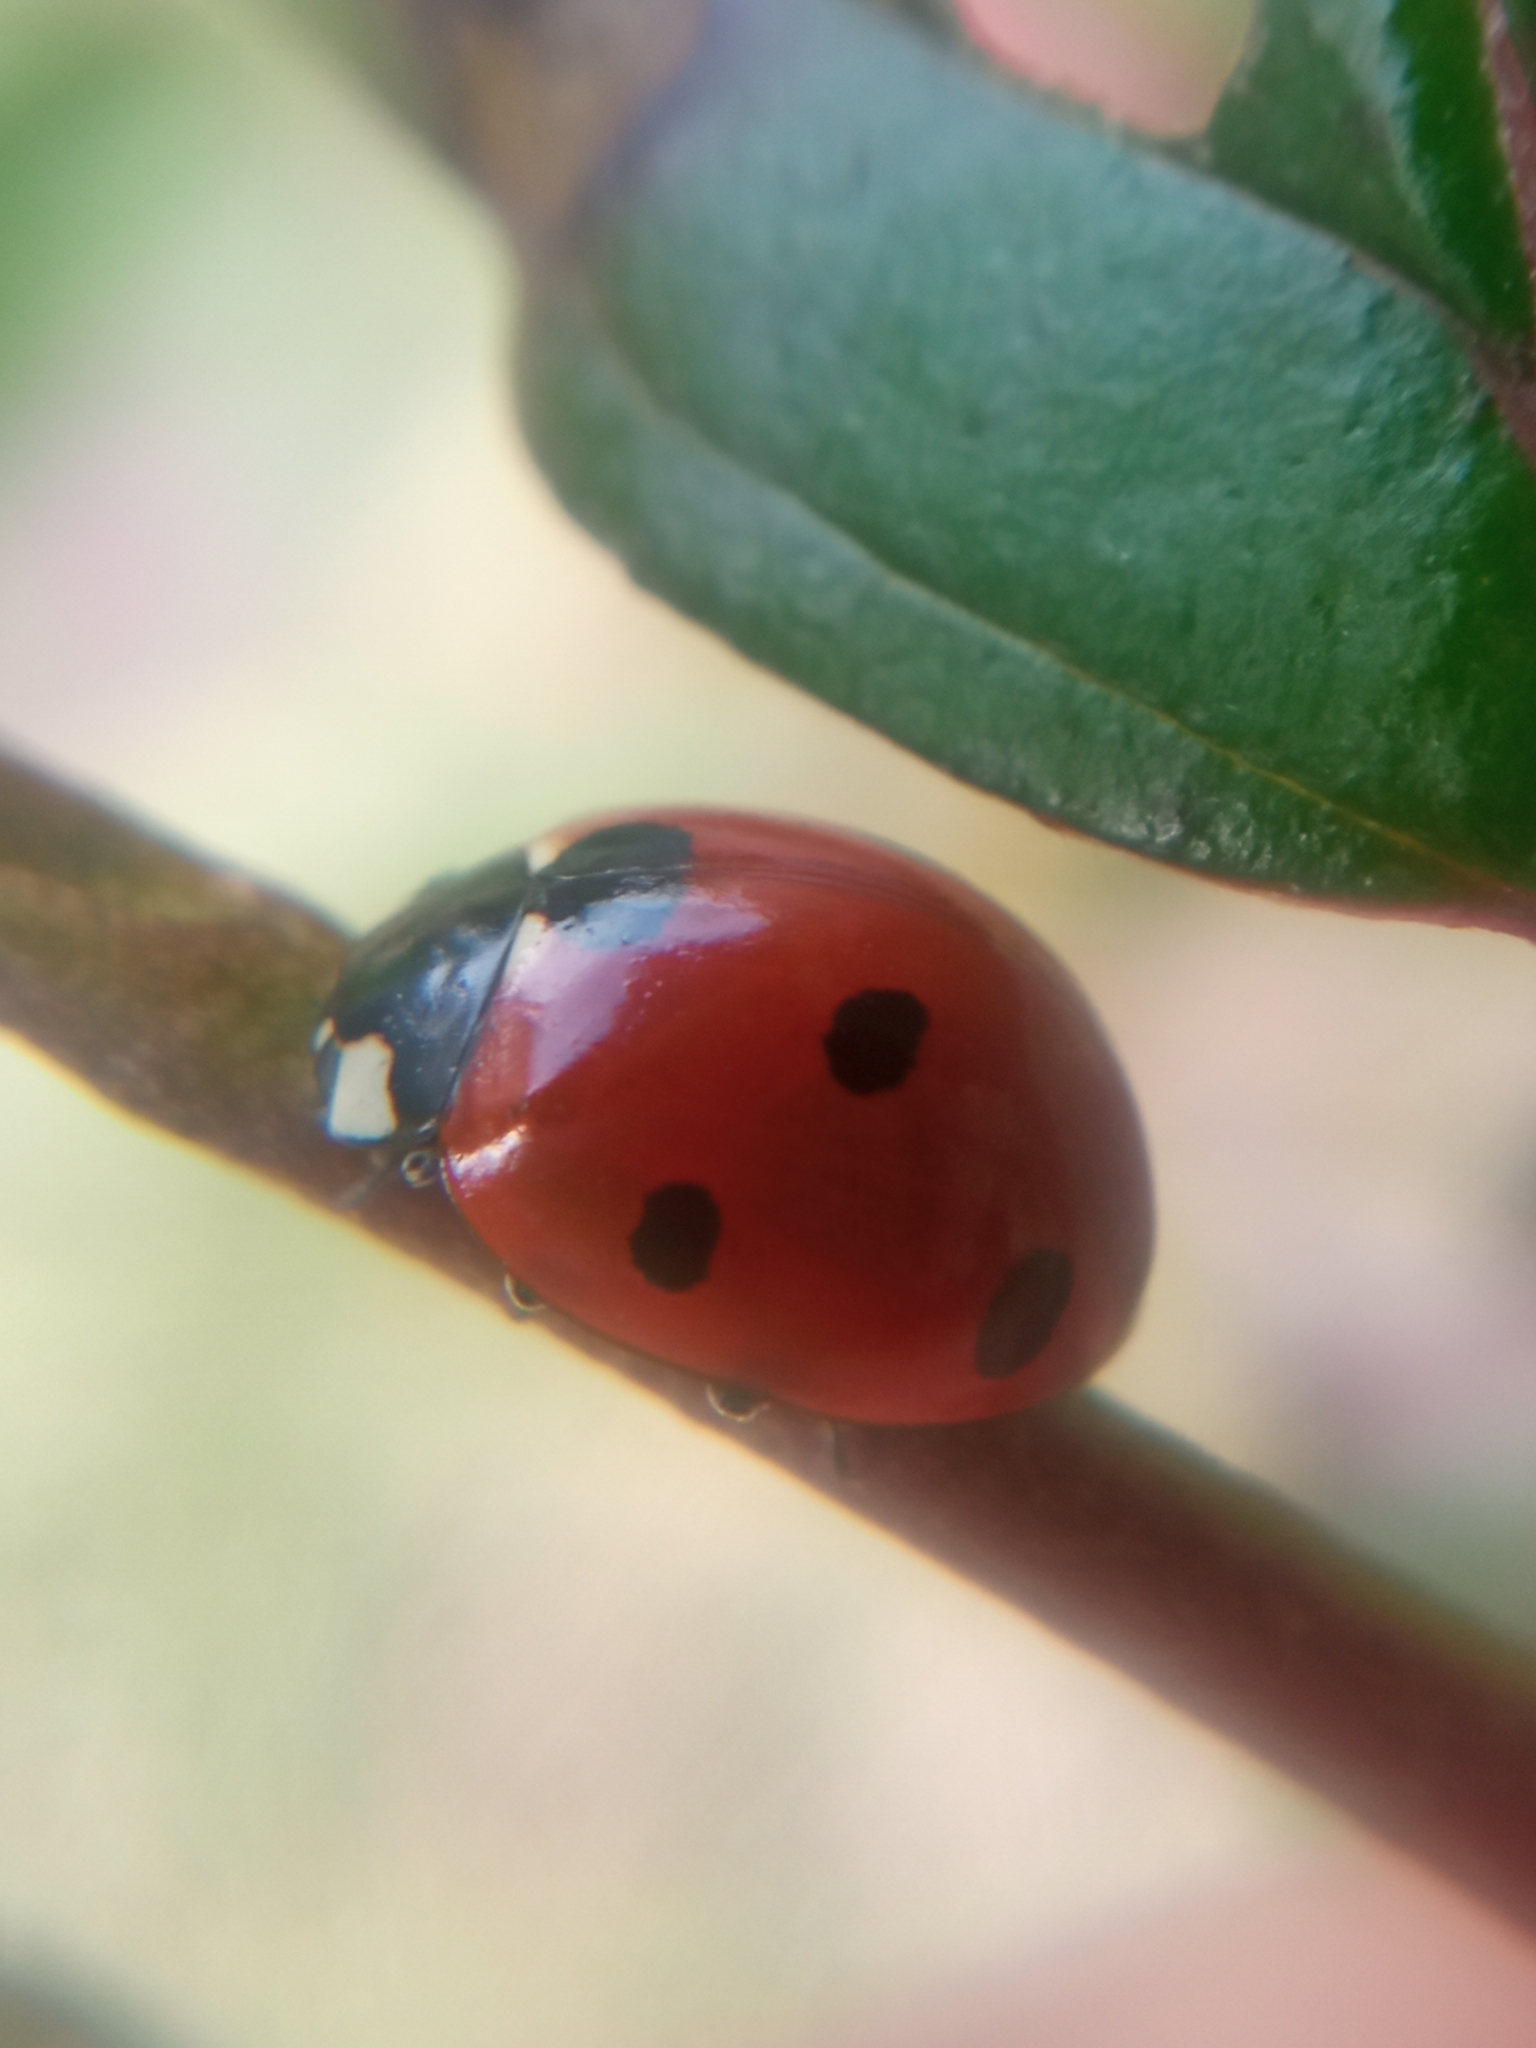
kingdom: Animalia
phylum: Arthropoda
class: Insecta
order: Coleoptera
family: Coccinellidae
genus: Coccinella
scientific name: Coccinella septempunctata
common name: Sevenspotted lady beetle
